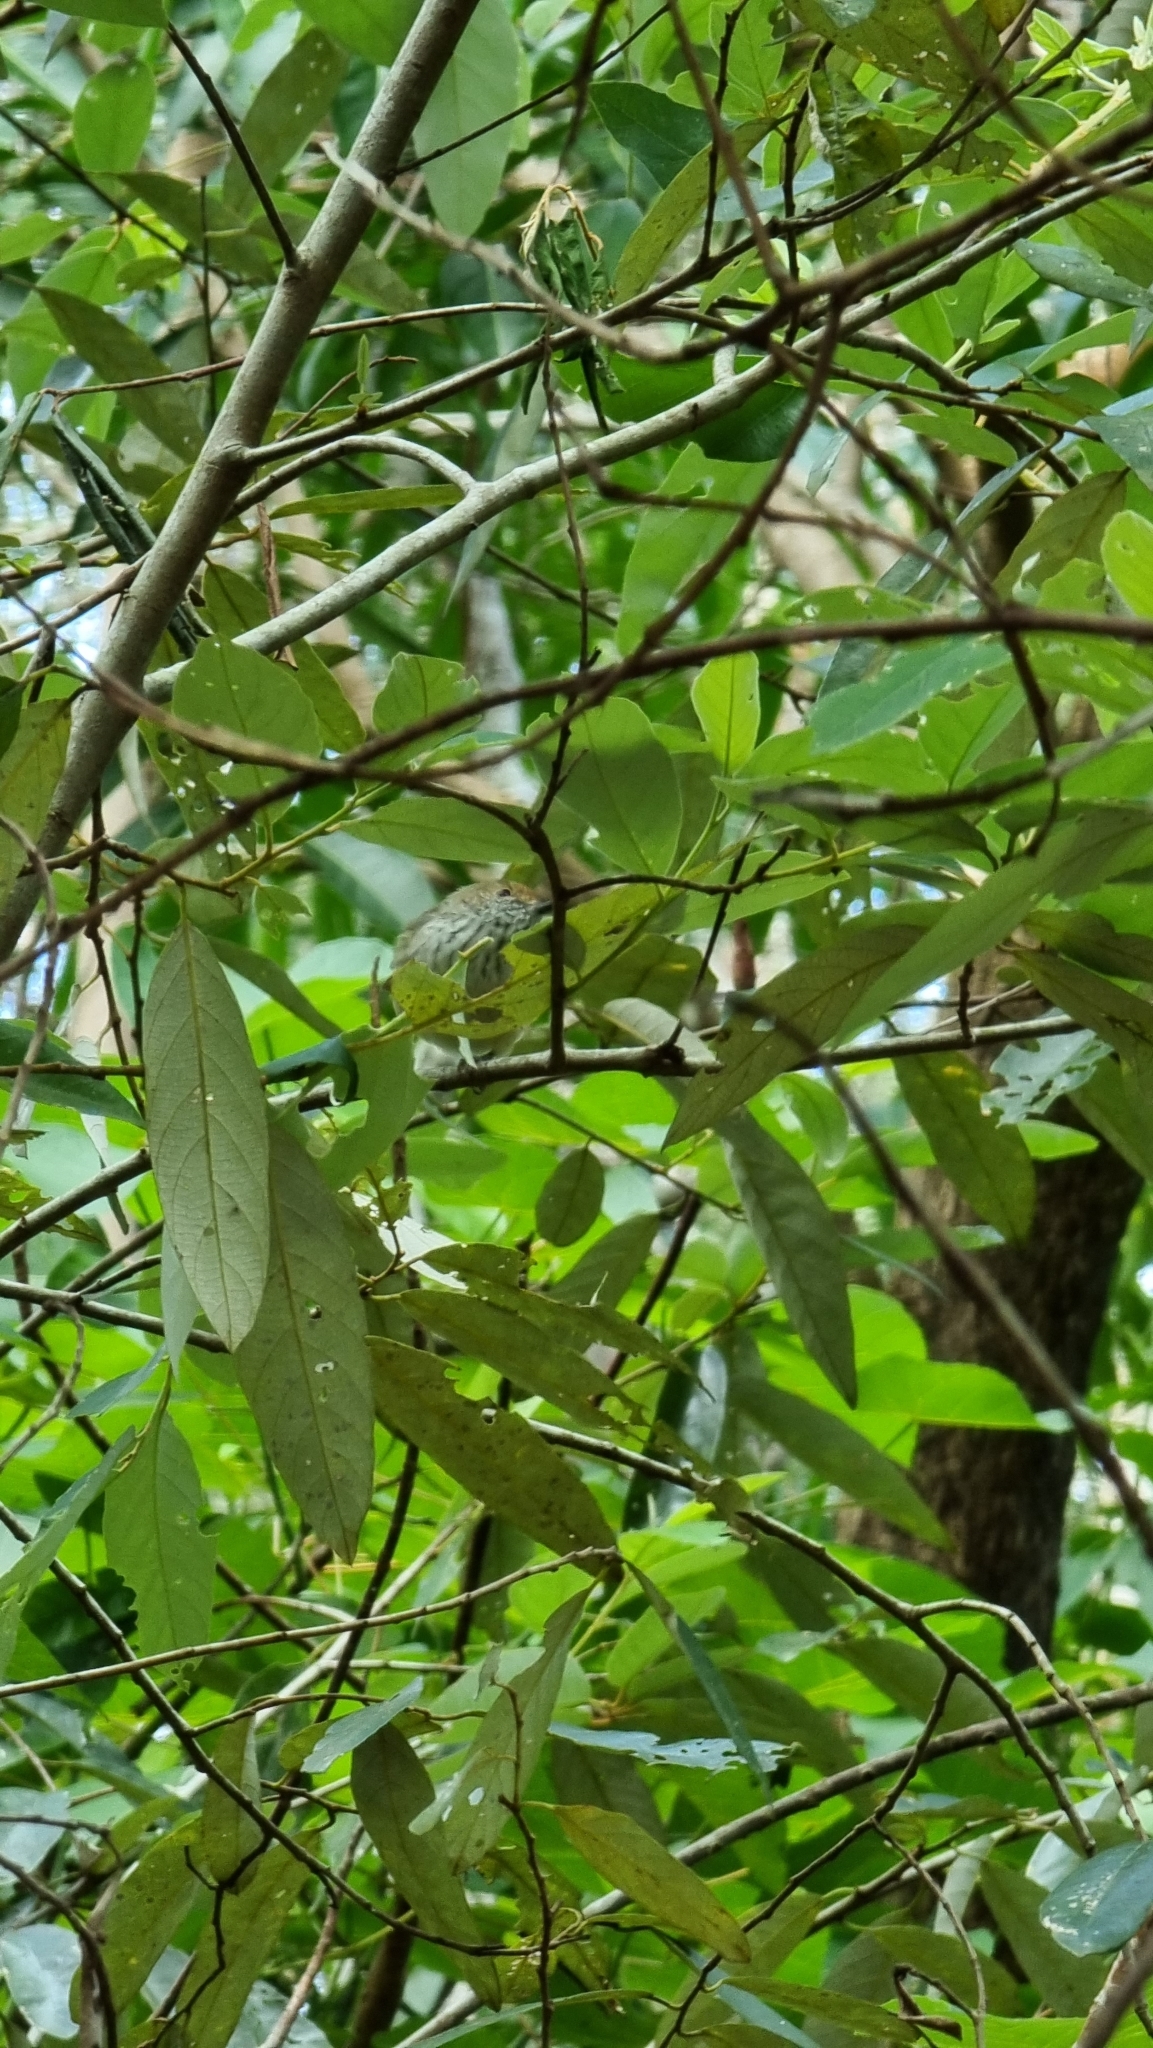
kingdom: Animalia
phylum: Chordata
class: Aves
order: Passeriformes
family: Acanthizidae
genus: Acanthiza
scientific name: Acanthiza pusilla
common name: Brown thornbill
